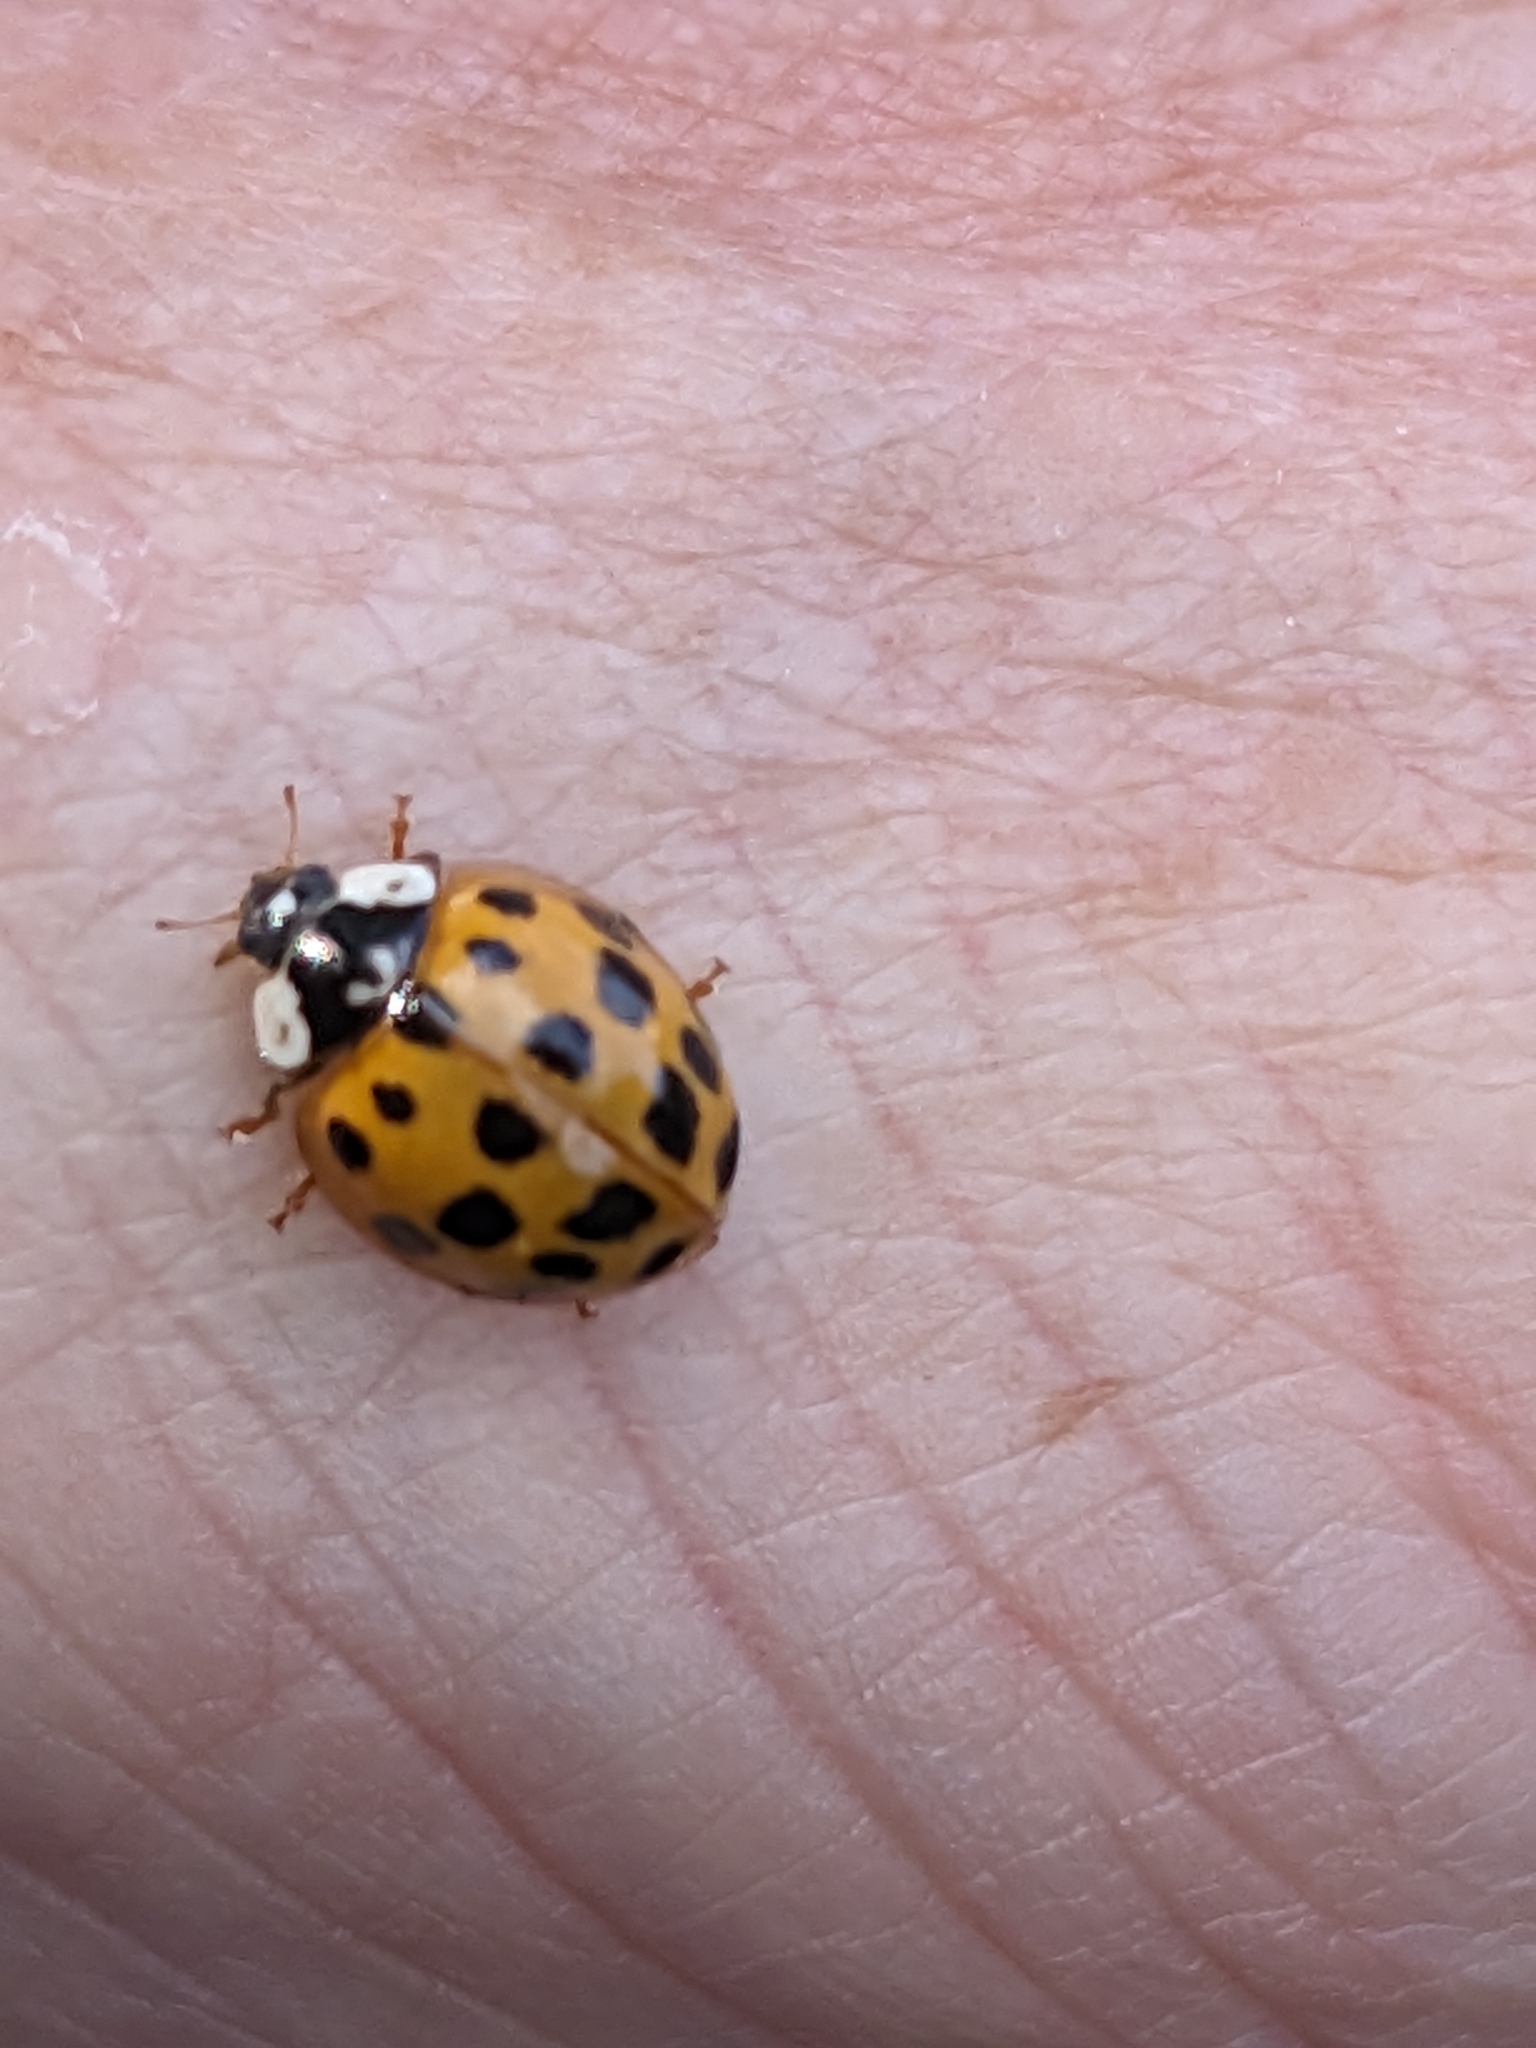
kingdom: Animalia
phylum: Arthropoda
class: Insecta
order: Coleoptera
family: Coccinellidae
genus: Harmonia
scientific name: Harmonia axyridis
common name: Harlequin ladybird
